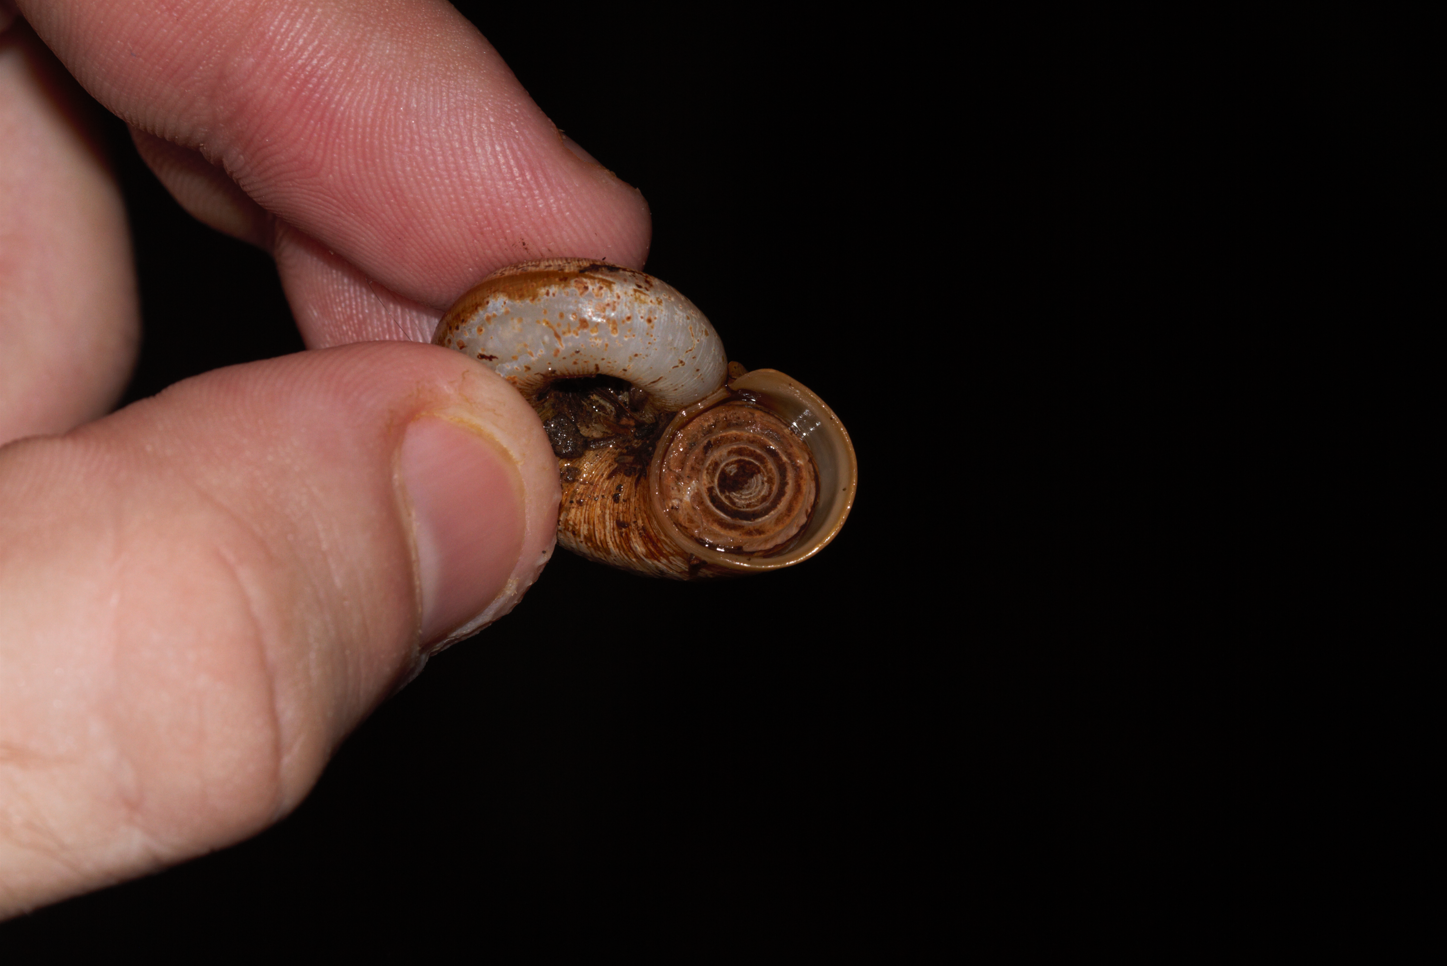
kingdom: Animalia
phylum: Mollusca
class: Gastropoda
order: Architaenioglossa
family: Neocyclotidae
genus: Incidostoma
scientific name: Incidostoma pari
